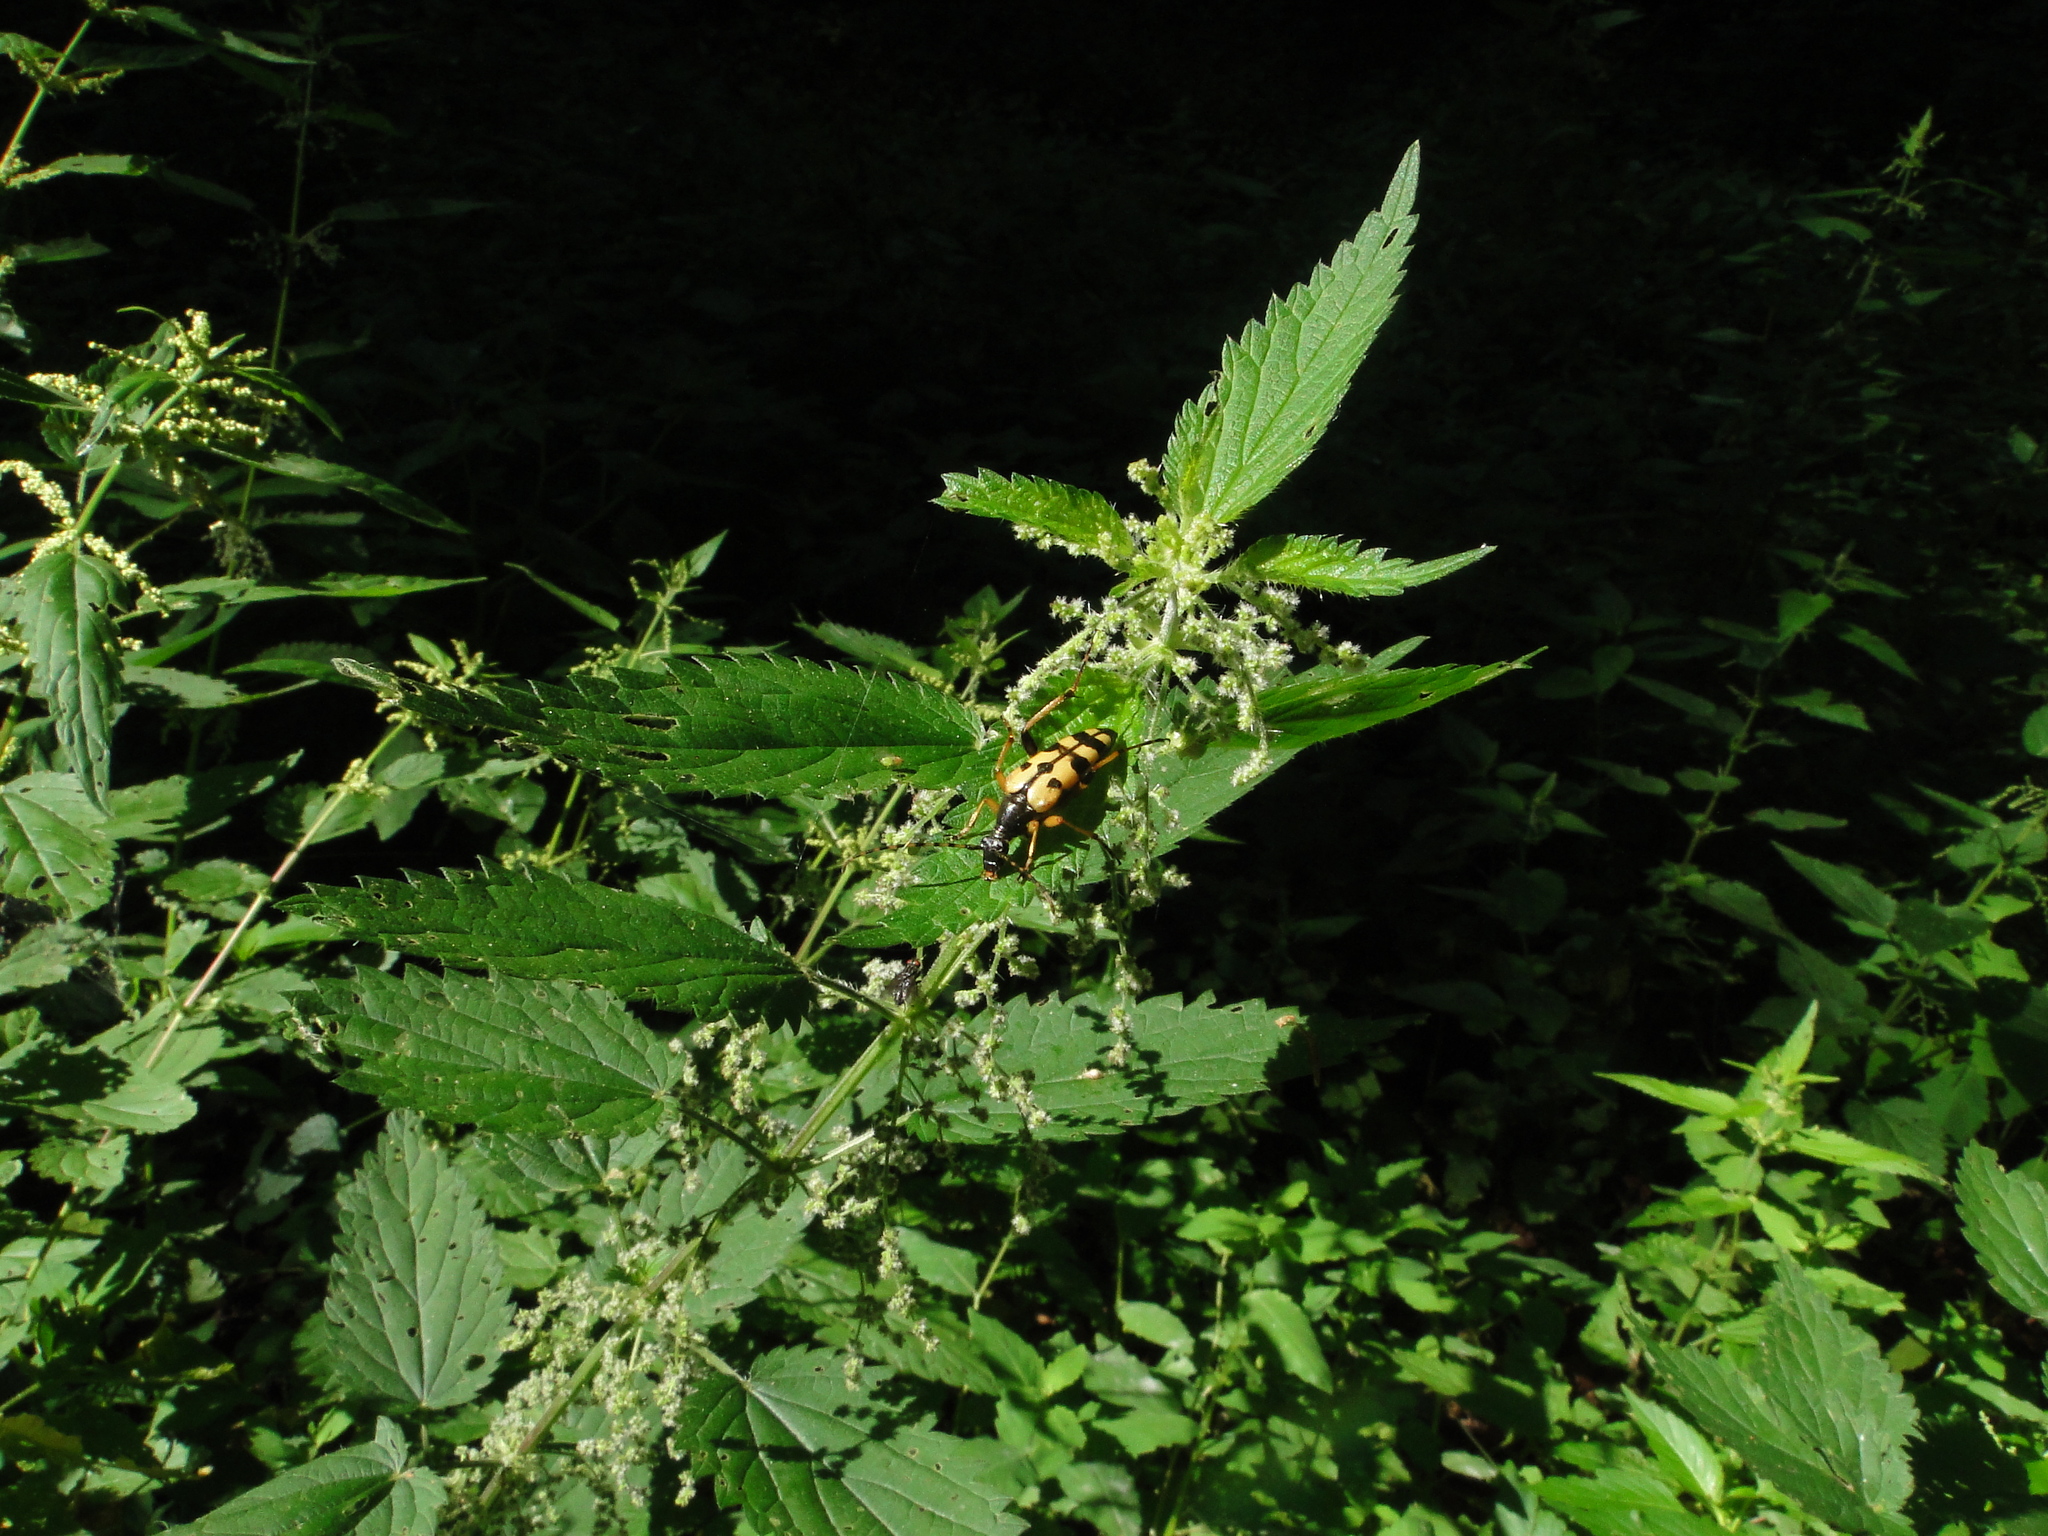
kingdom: Animalia
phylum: Arthropoda
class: Insecta
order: Coleoptera
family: Cerambycidae
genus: Rutpela
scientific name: Rutpela maculata
